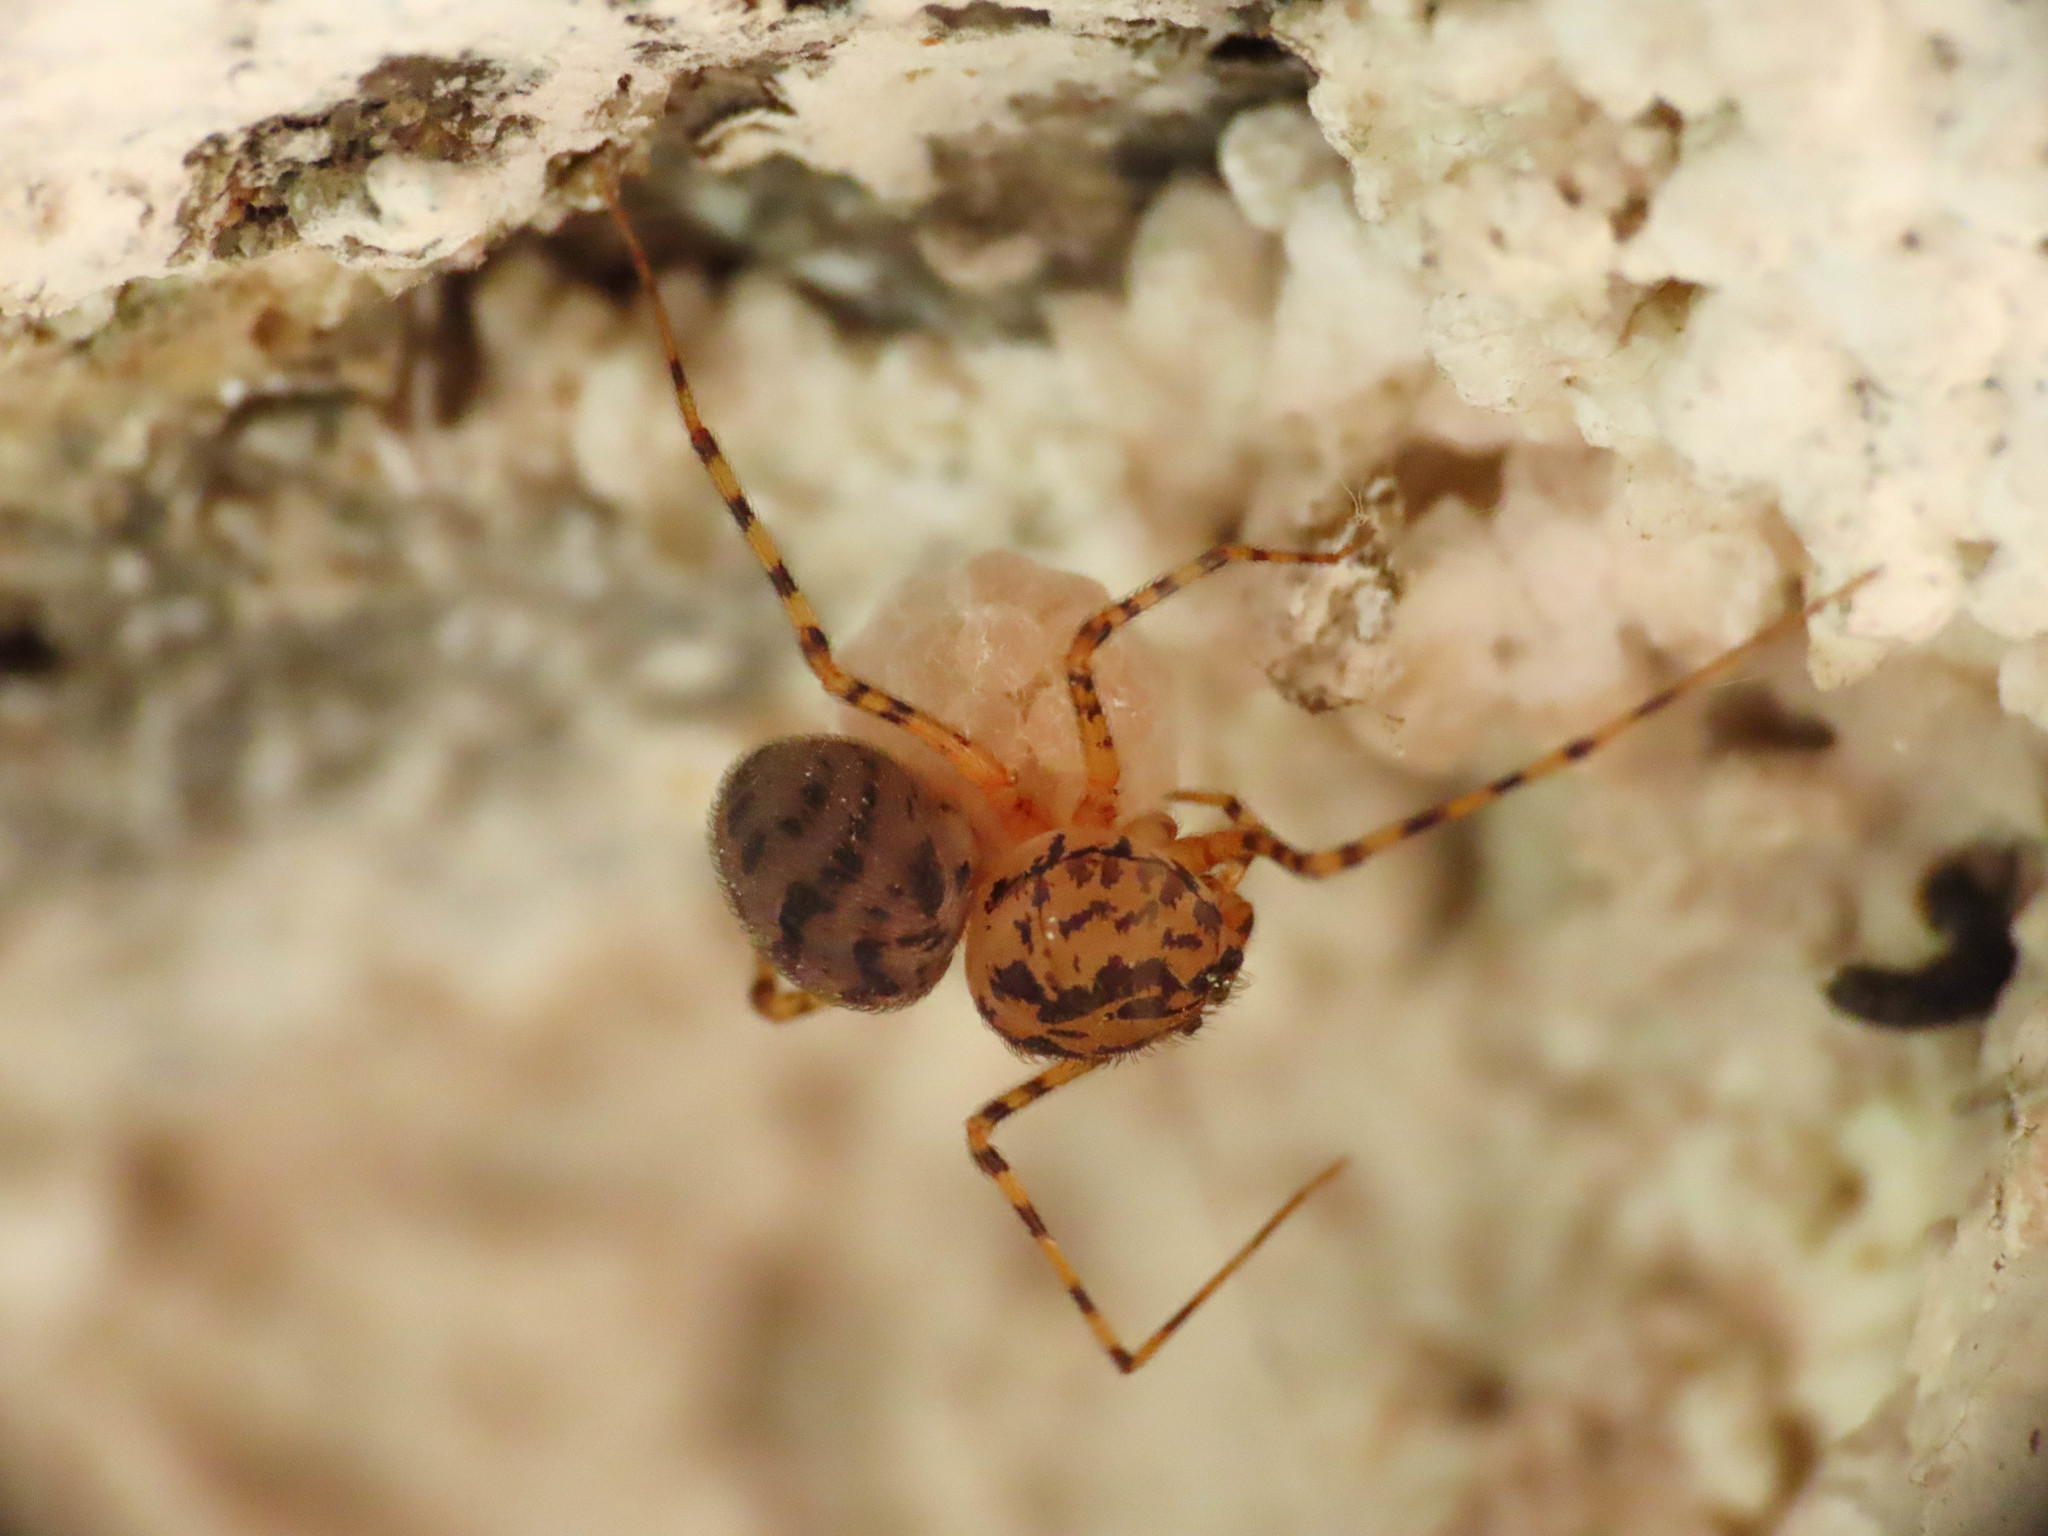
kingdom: Animalia
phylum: Arthropoda
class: Arachnida
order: Araneae
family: Scytodidae
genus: Scytodes
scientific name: Scytodes thoracica
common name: Spitting spider
